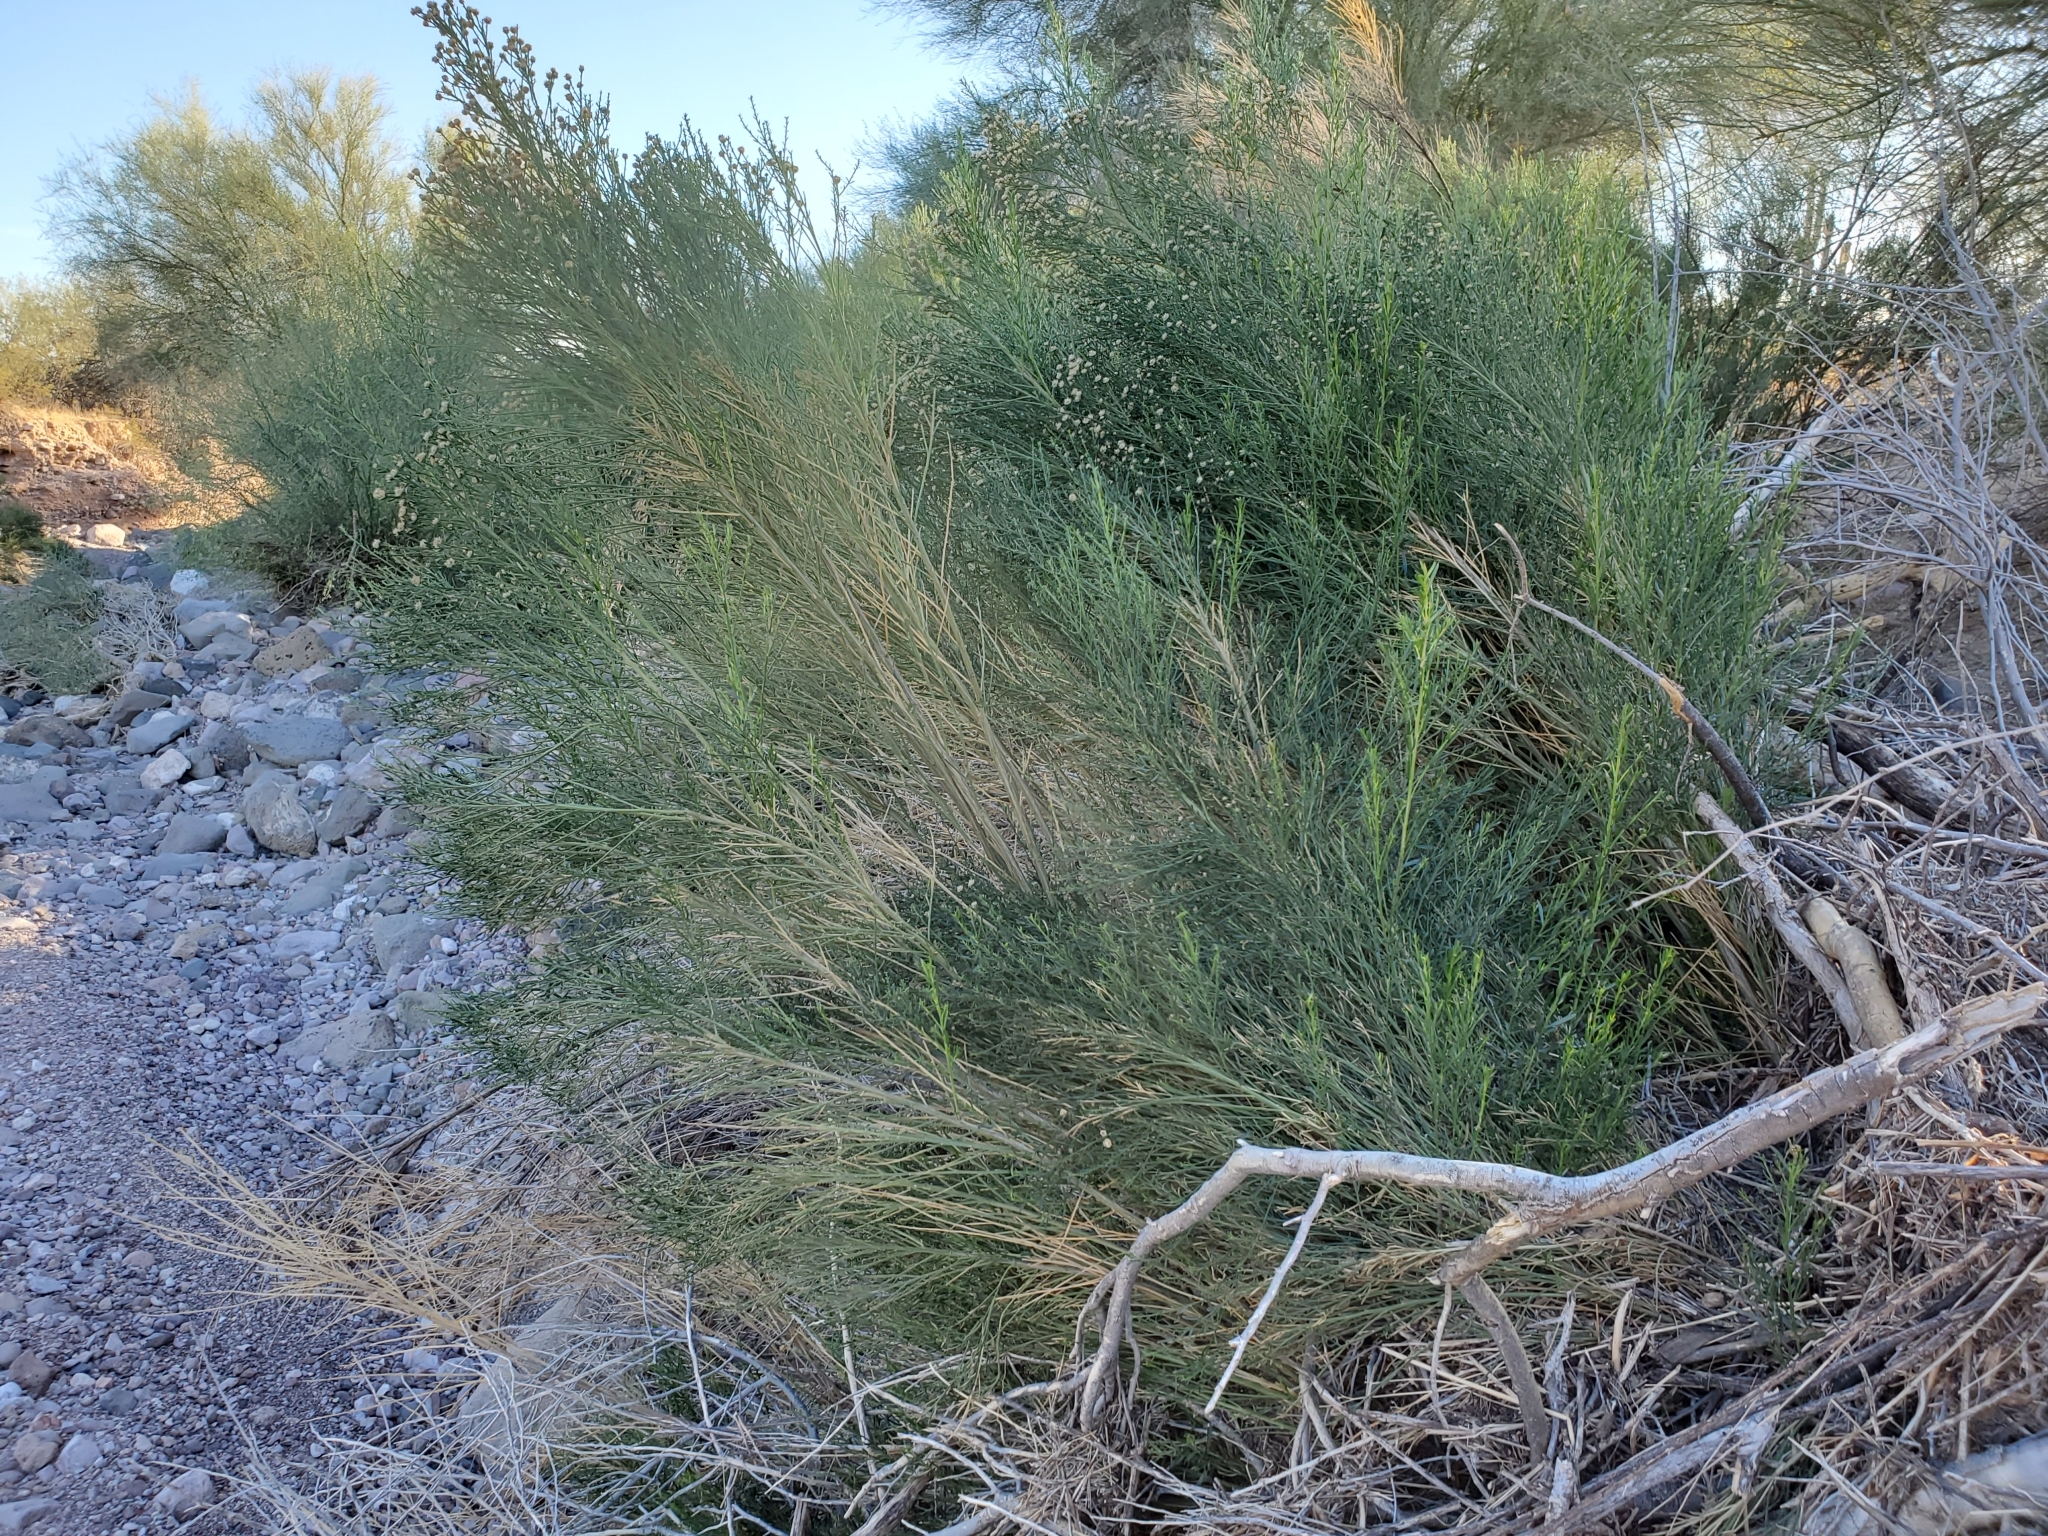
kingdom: Plantae
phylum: Tracheophyta
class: Magnoliopsida
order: Asterales
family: Asteraceae
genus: Baccharis
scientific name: Baccharis sarothroides
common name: Desert-broom
